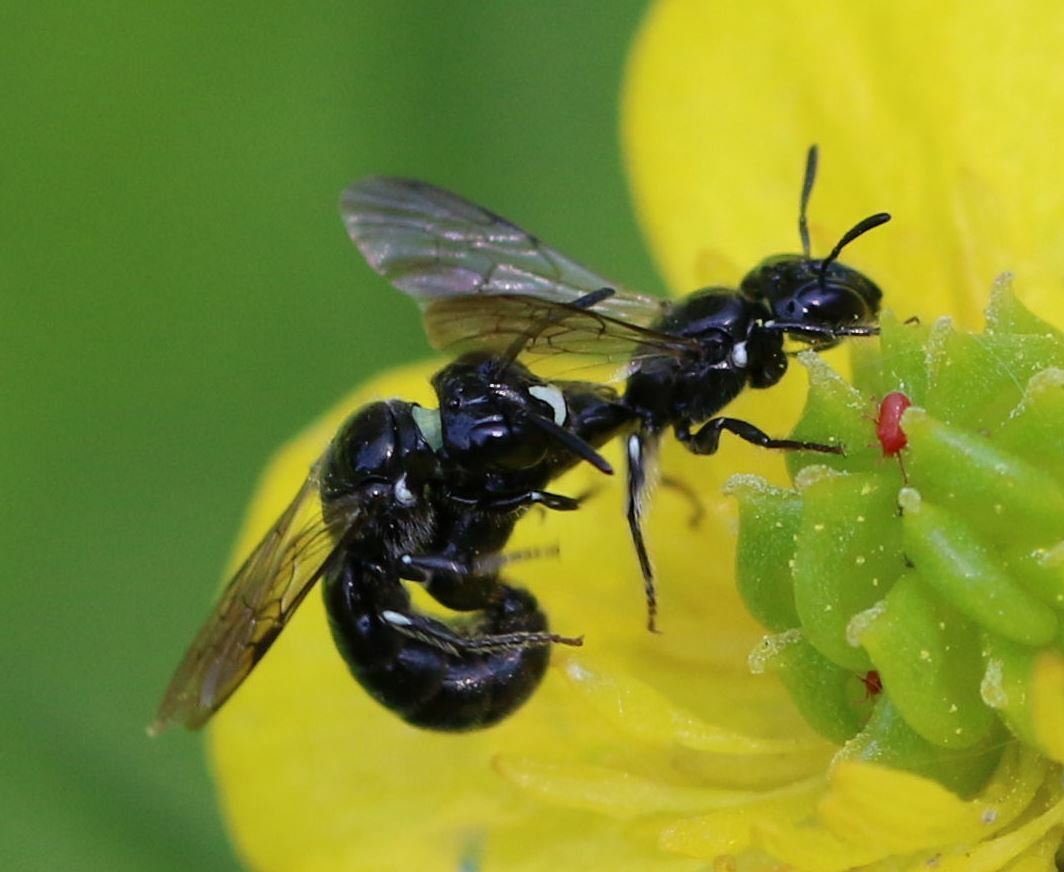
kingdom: Animalia
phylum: Arthropoda
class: Insecta
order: Hymenoptera
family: Apidae
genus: Ceratina
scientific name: Ceratina cucurbitina
